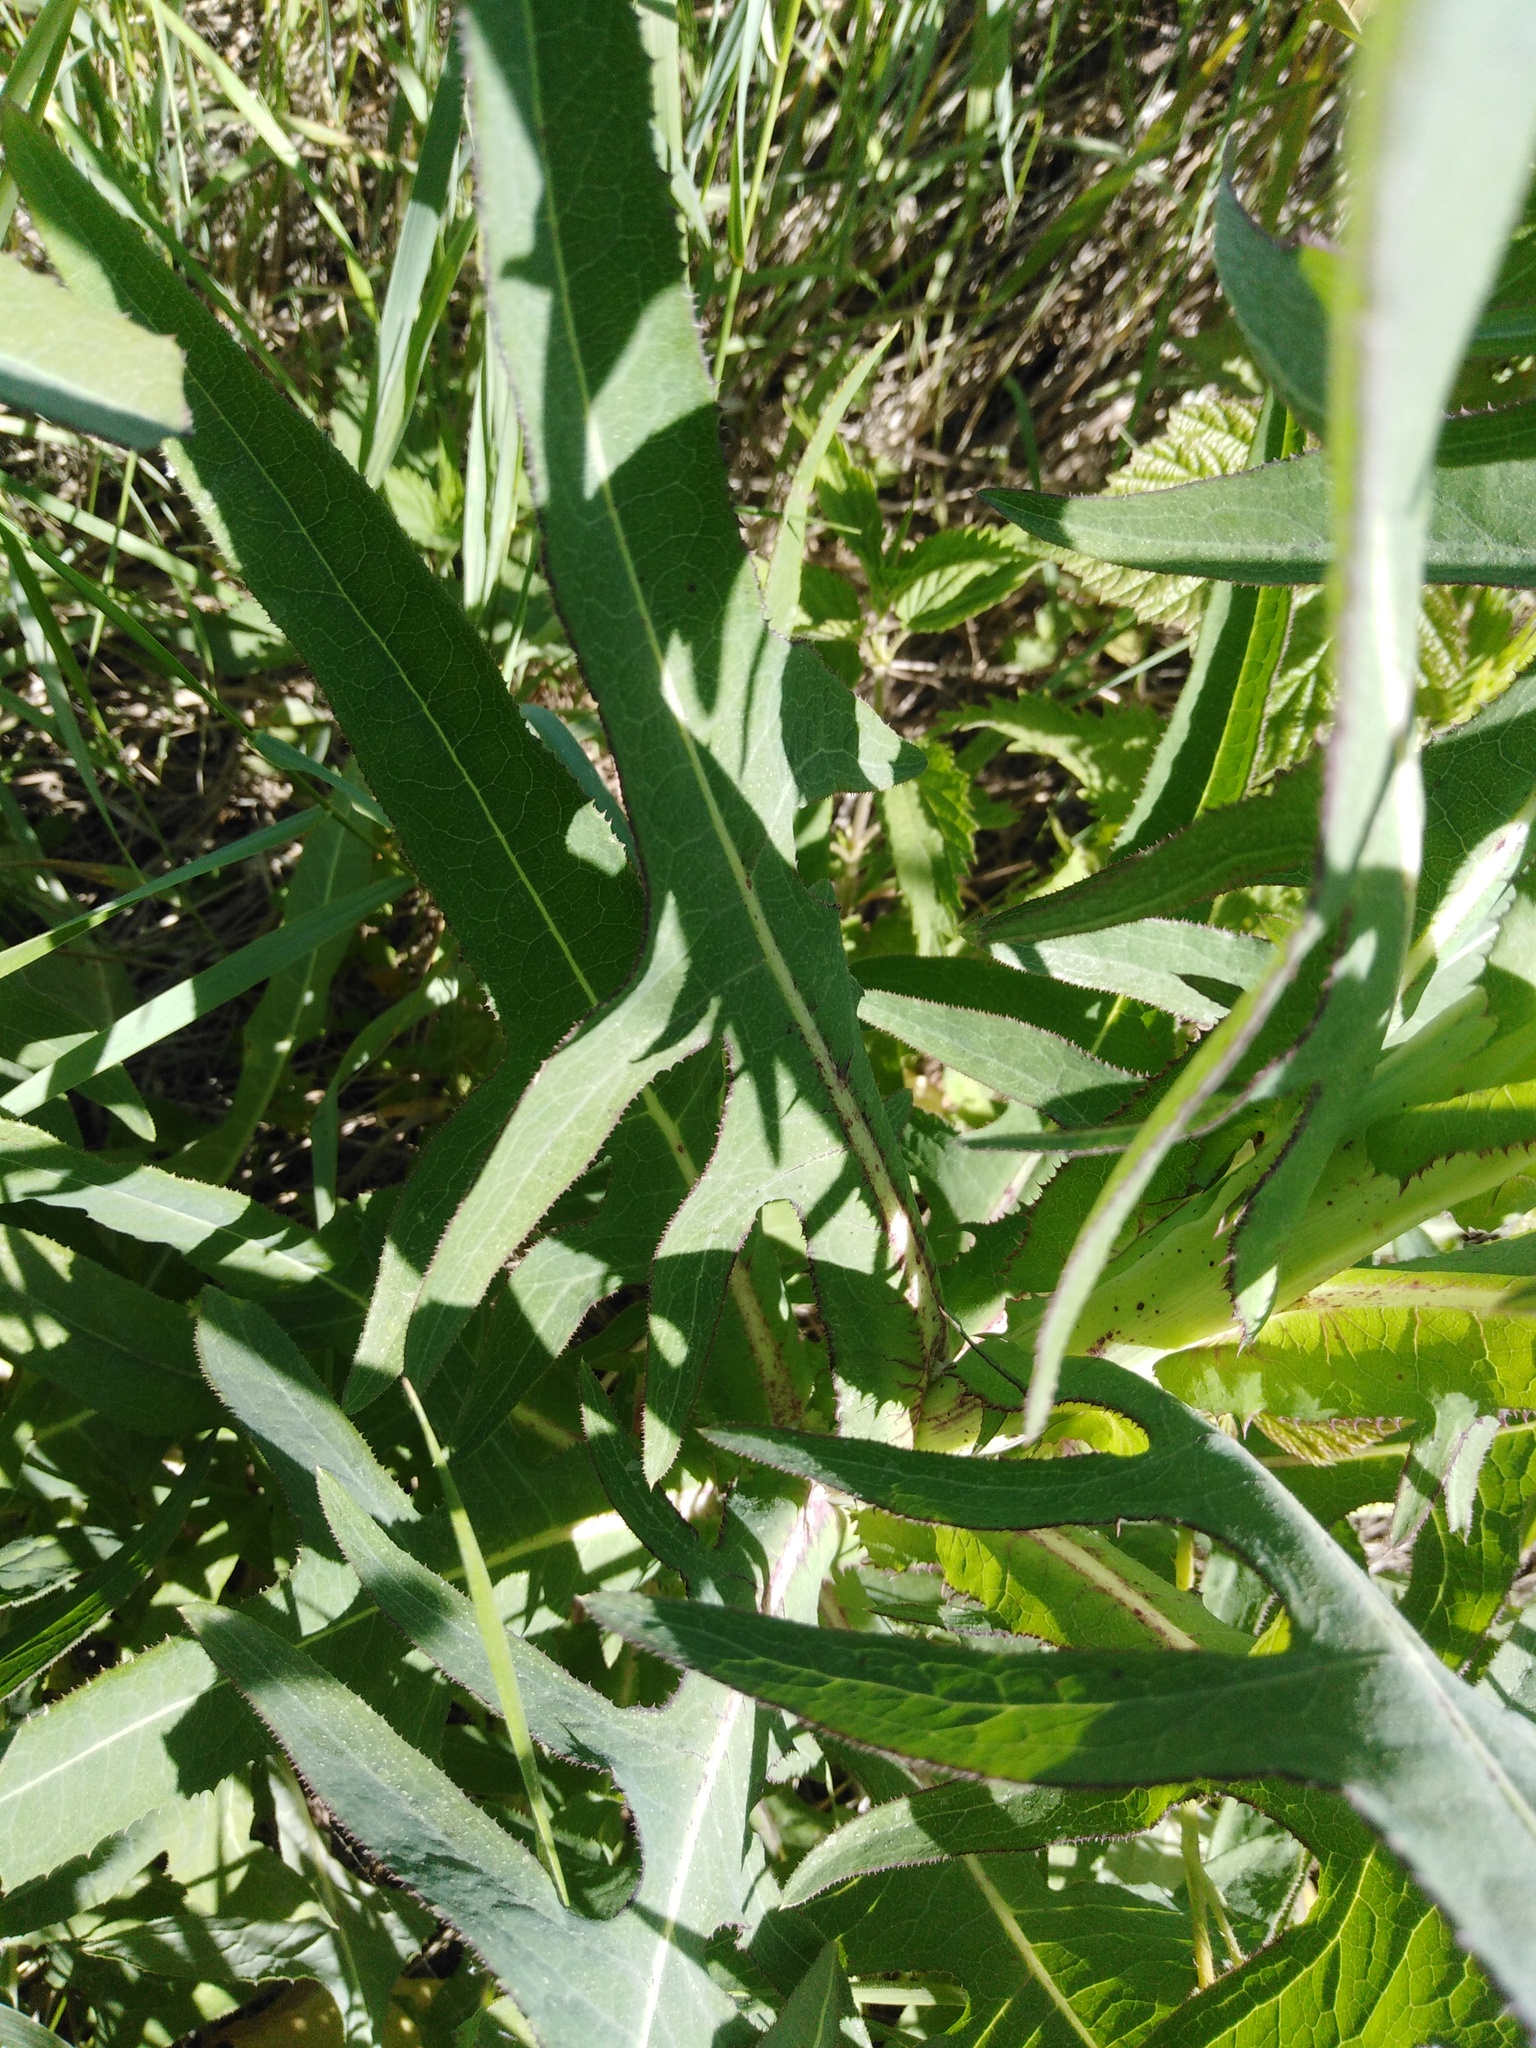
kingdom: Plantae
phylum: Tracheophyta
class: Magnoliopsida
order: Asterales
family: Asteraceae
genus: Sonchus
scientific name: Sonchus palustris
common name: Marsh sow-thistle
